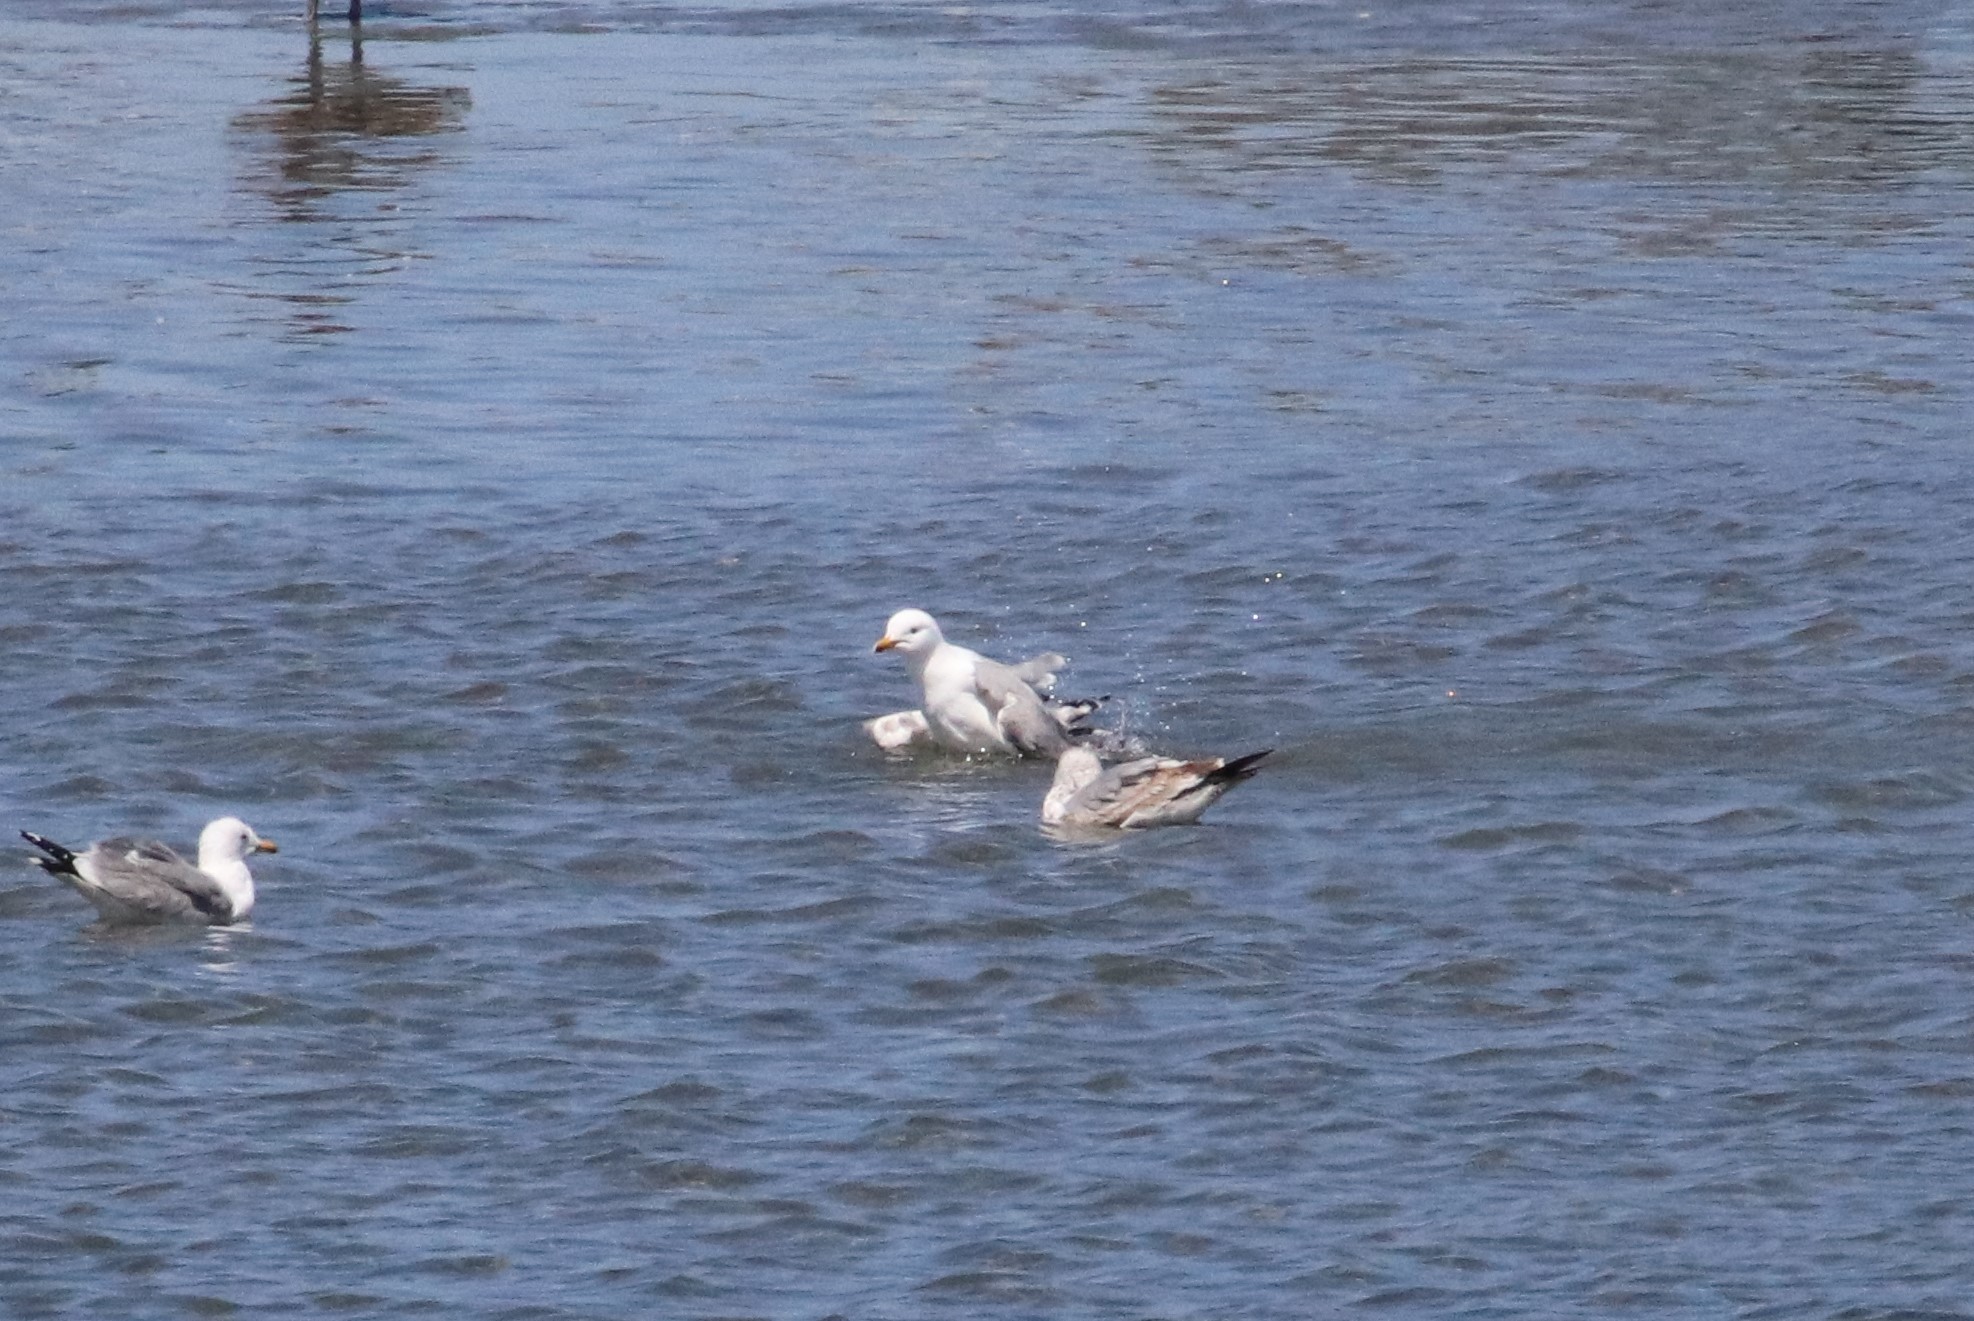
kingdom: Animalia
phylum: Chordata
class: Aves
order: Charadriiformes
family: Laridae
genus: Larus
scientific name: Larus californicus
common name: California gull
